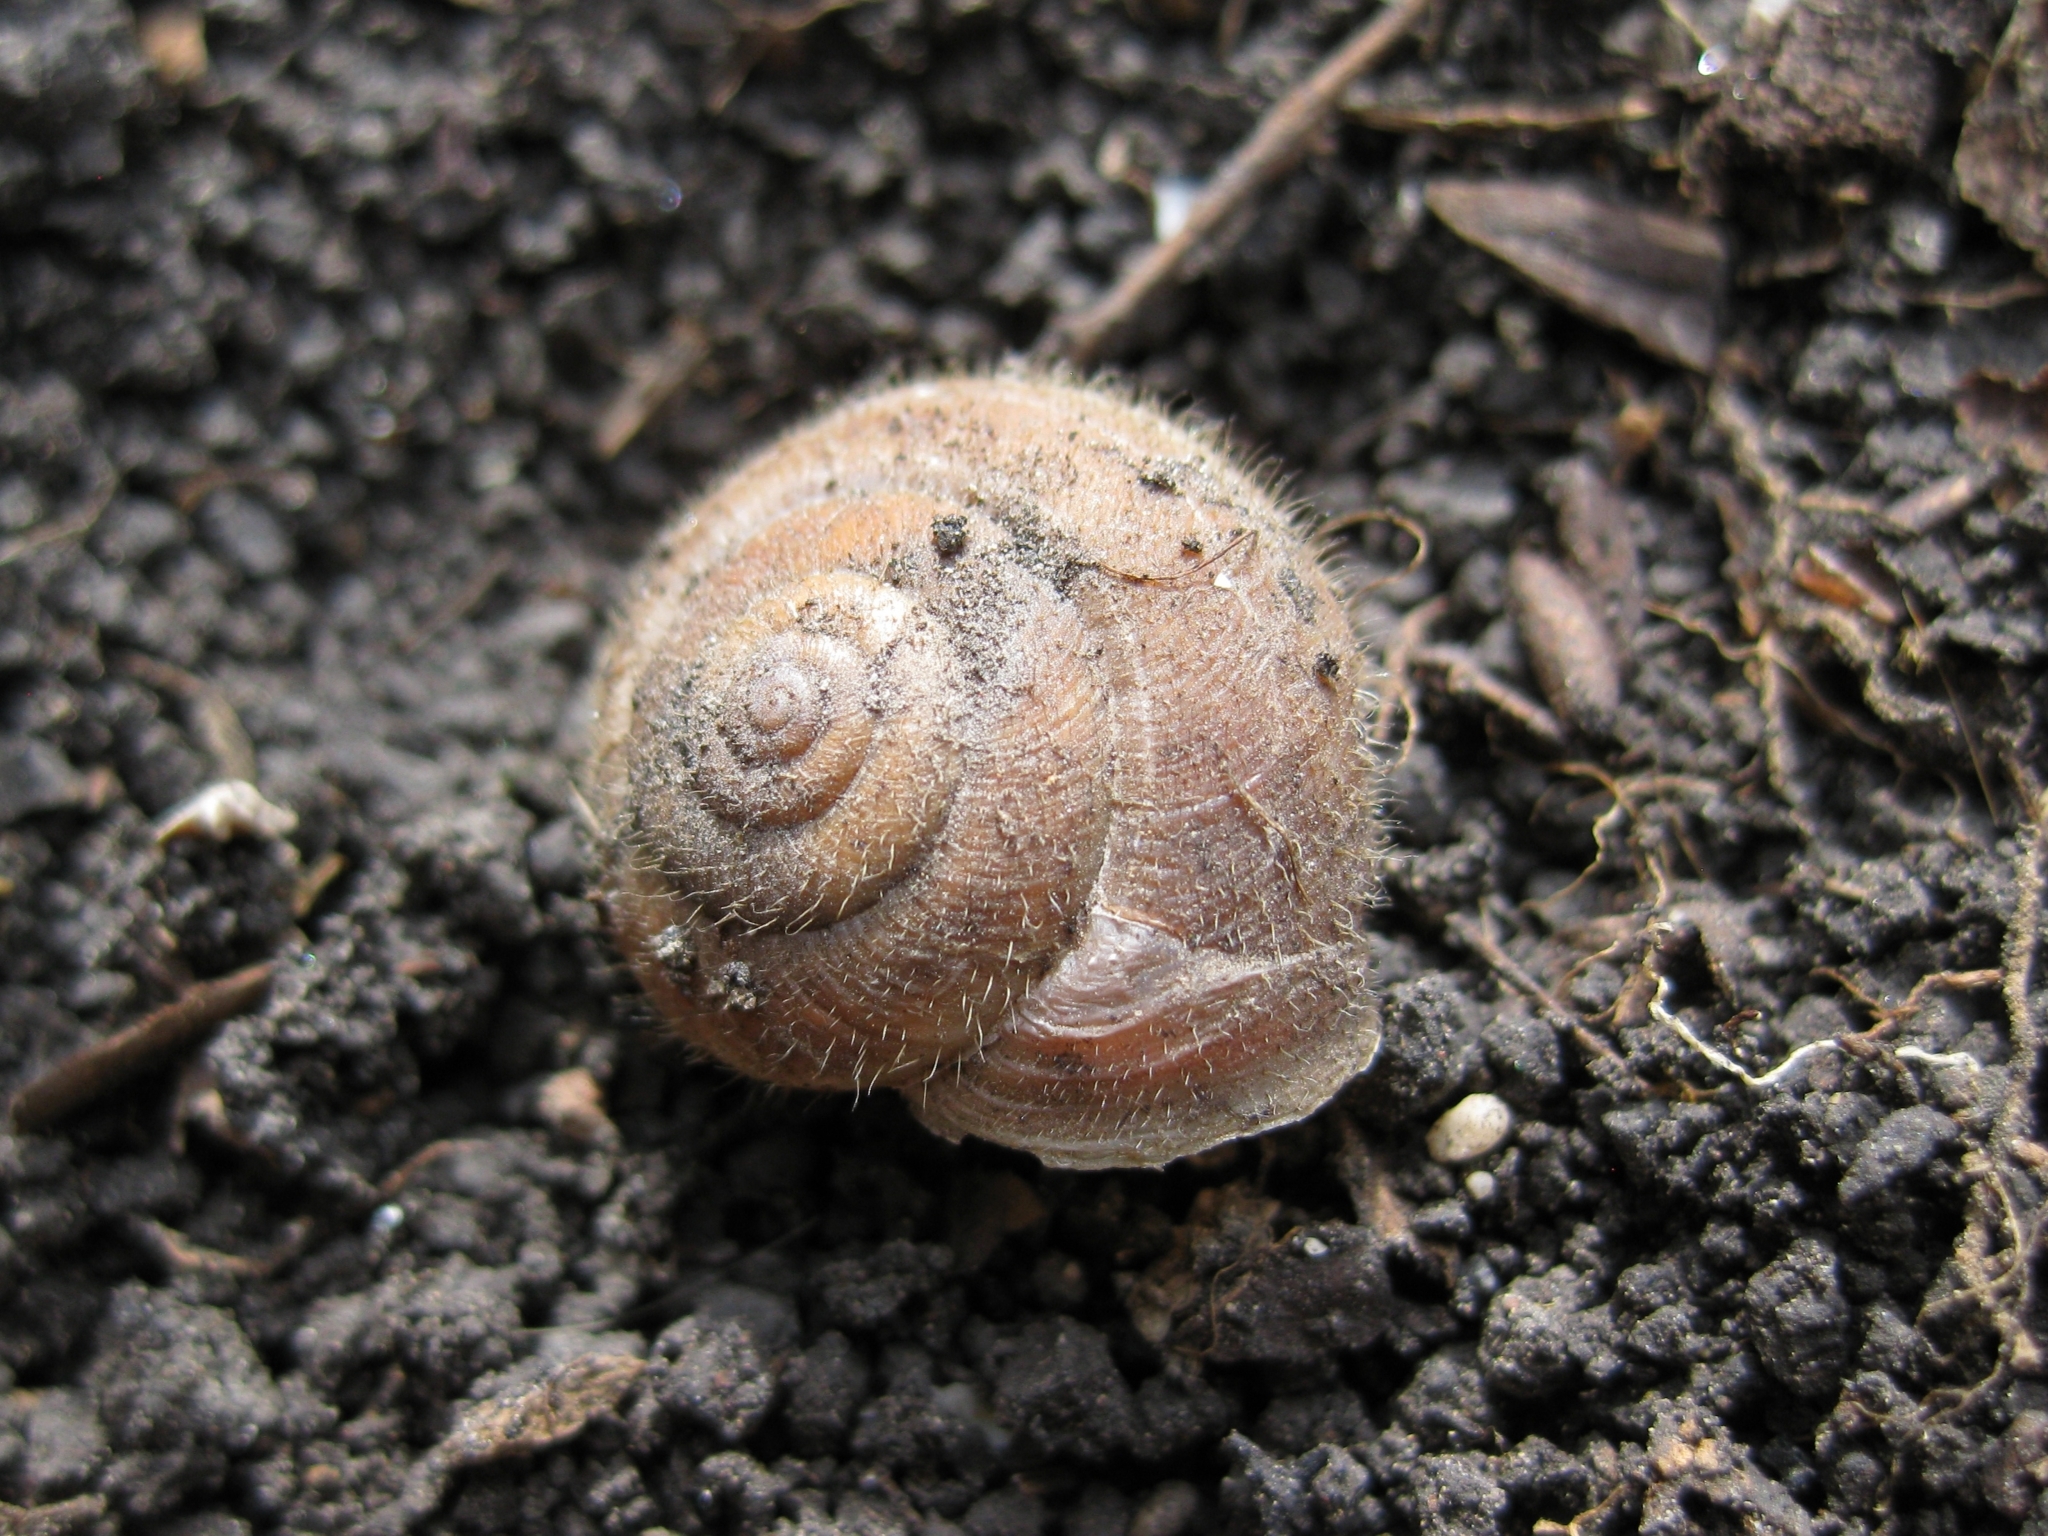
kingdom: Animalia
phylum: Mollusca
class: Gastropoda
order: Stylommatophora
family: Hygromiidae
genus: Euomphalia
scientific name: Euomphalia aristata
